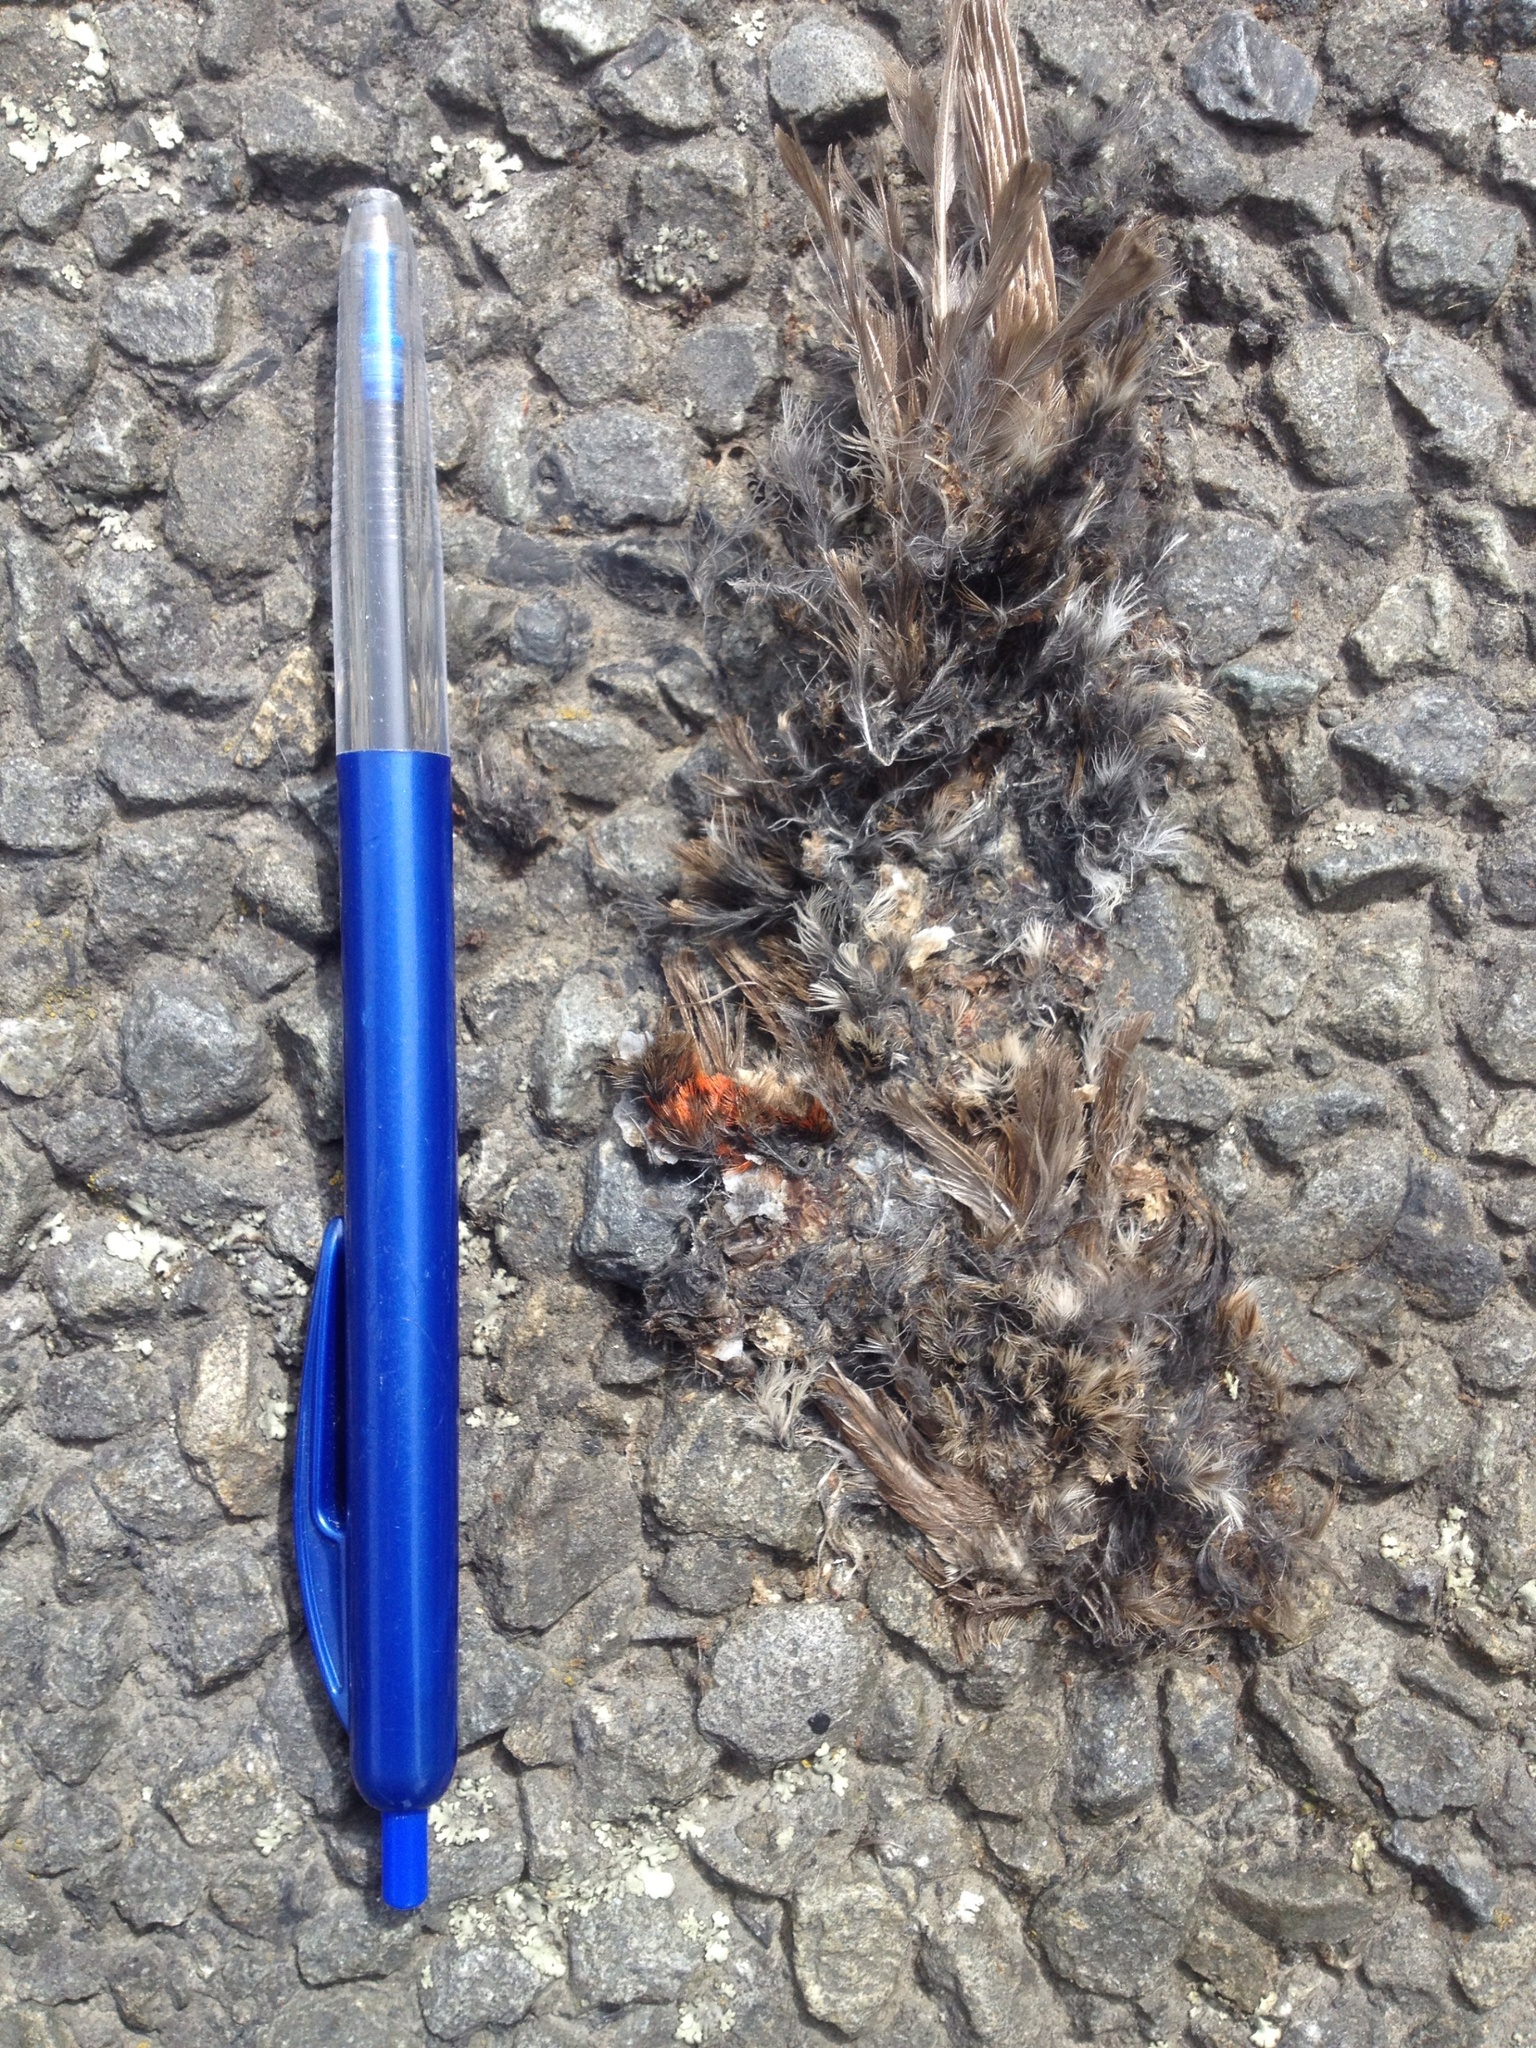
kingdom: Animalia
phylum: Chordata
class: Aves
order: Passeriformes
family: Fringillidae
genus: Acanthis
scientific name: Acanthis flammea
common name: Common redpoll
